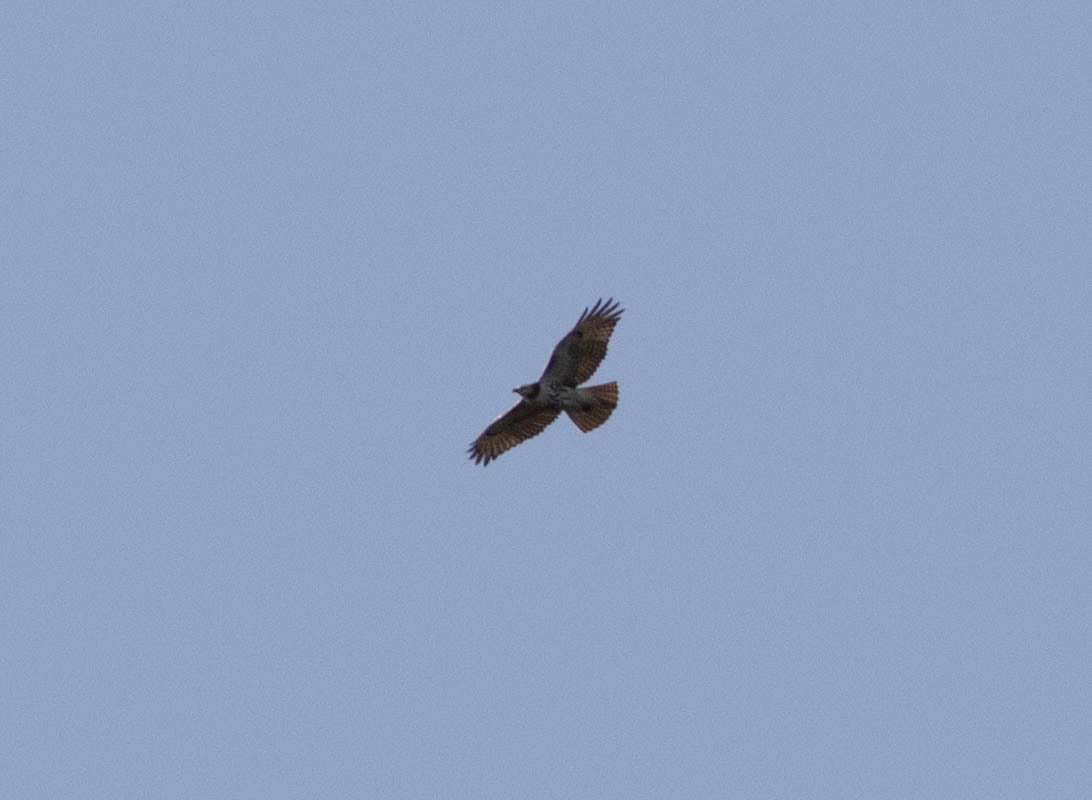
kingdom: Animalia
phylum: Chordata
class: Aves
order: Accipitriformes
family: Accipitridae
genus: Buteo
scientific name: Buteo jamaicensis
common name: Red-tailed hawk
